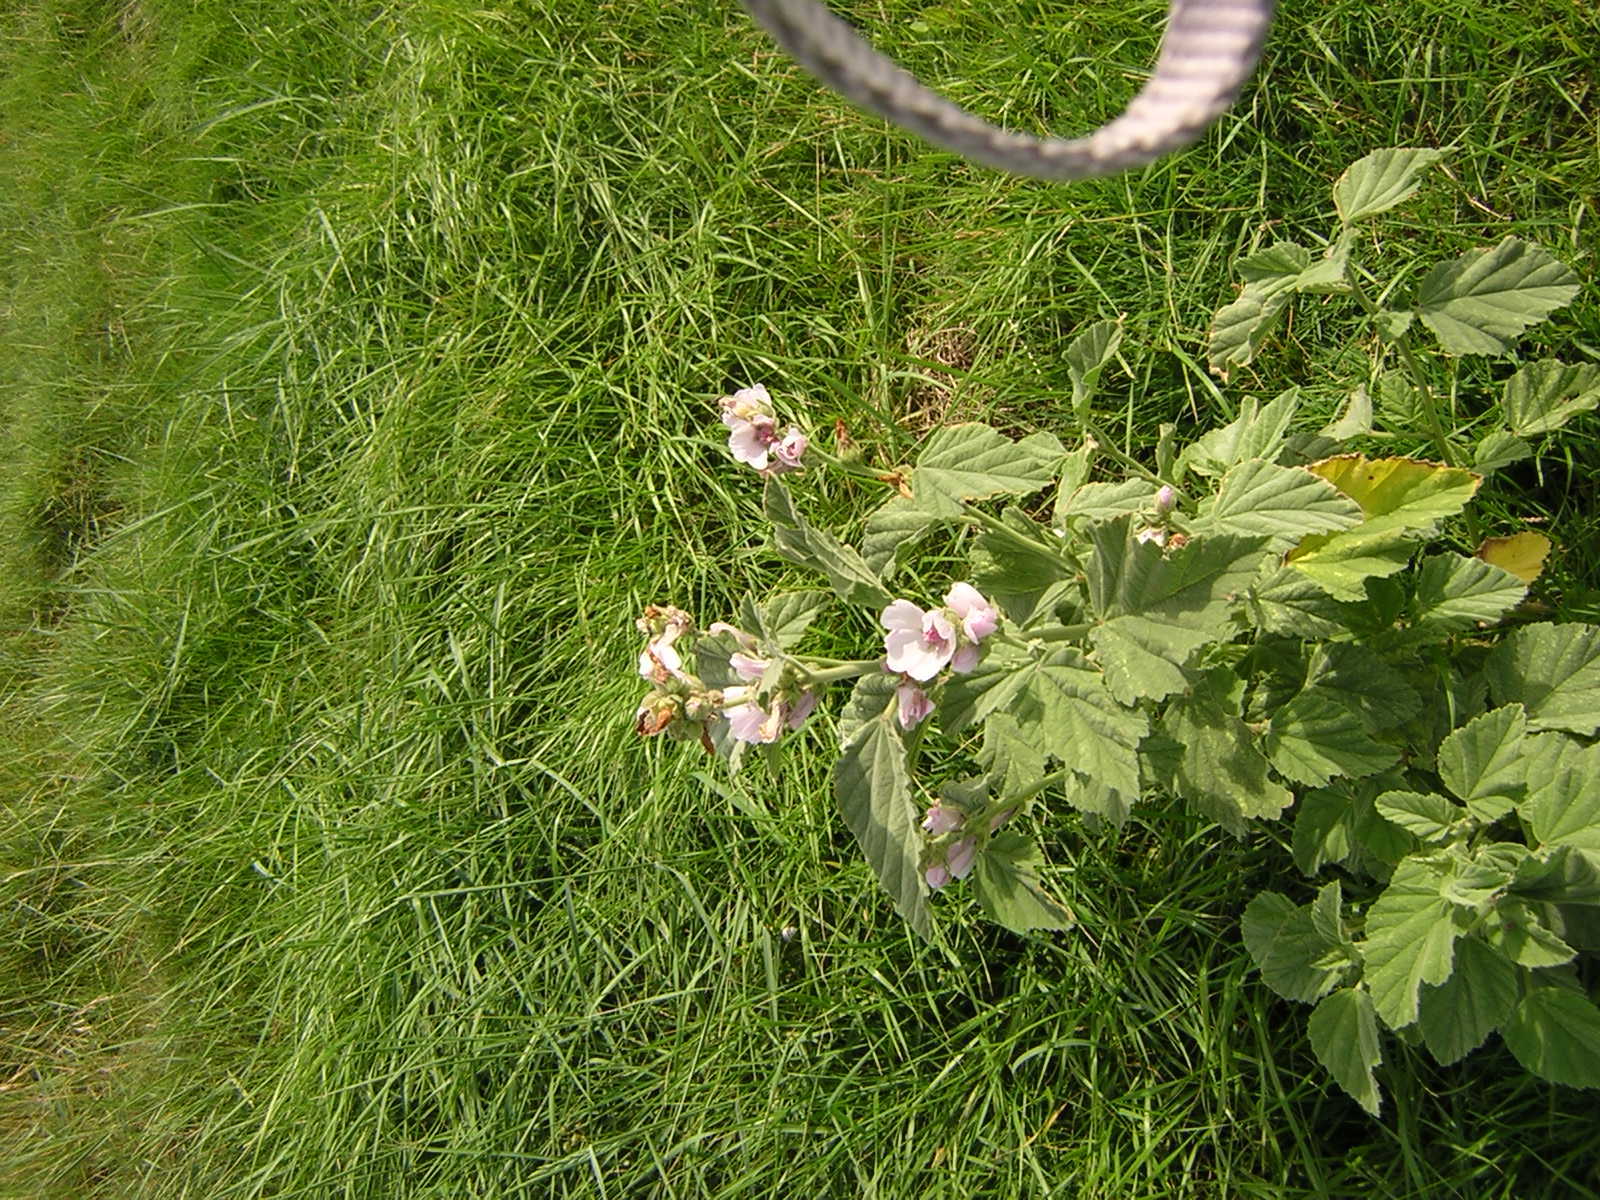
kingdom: Plantae
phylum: Tracheophyta
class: Magnoliopsida
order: Malvales
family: Malvaceae
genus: Althaea
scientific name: Althaea officinalis
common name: Marsh-mallow
